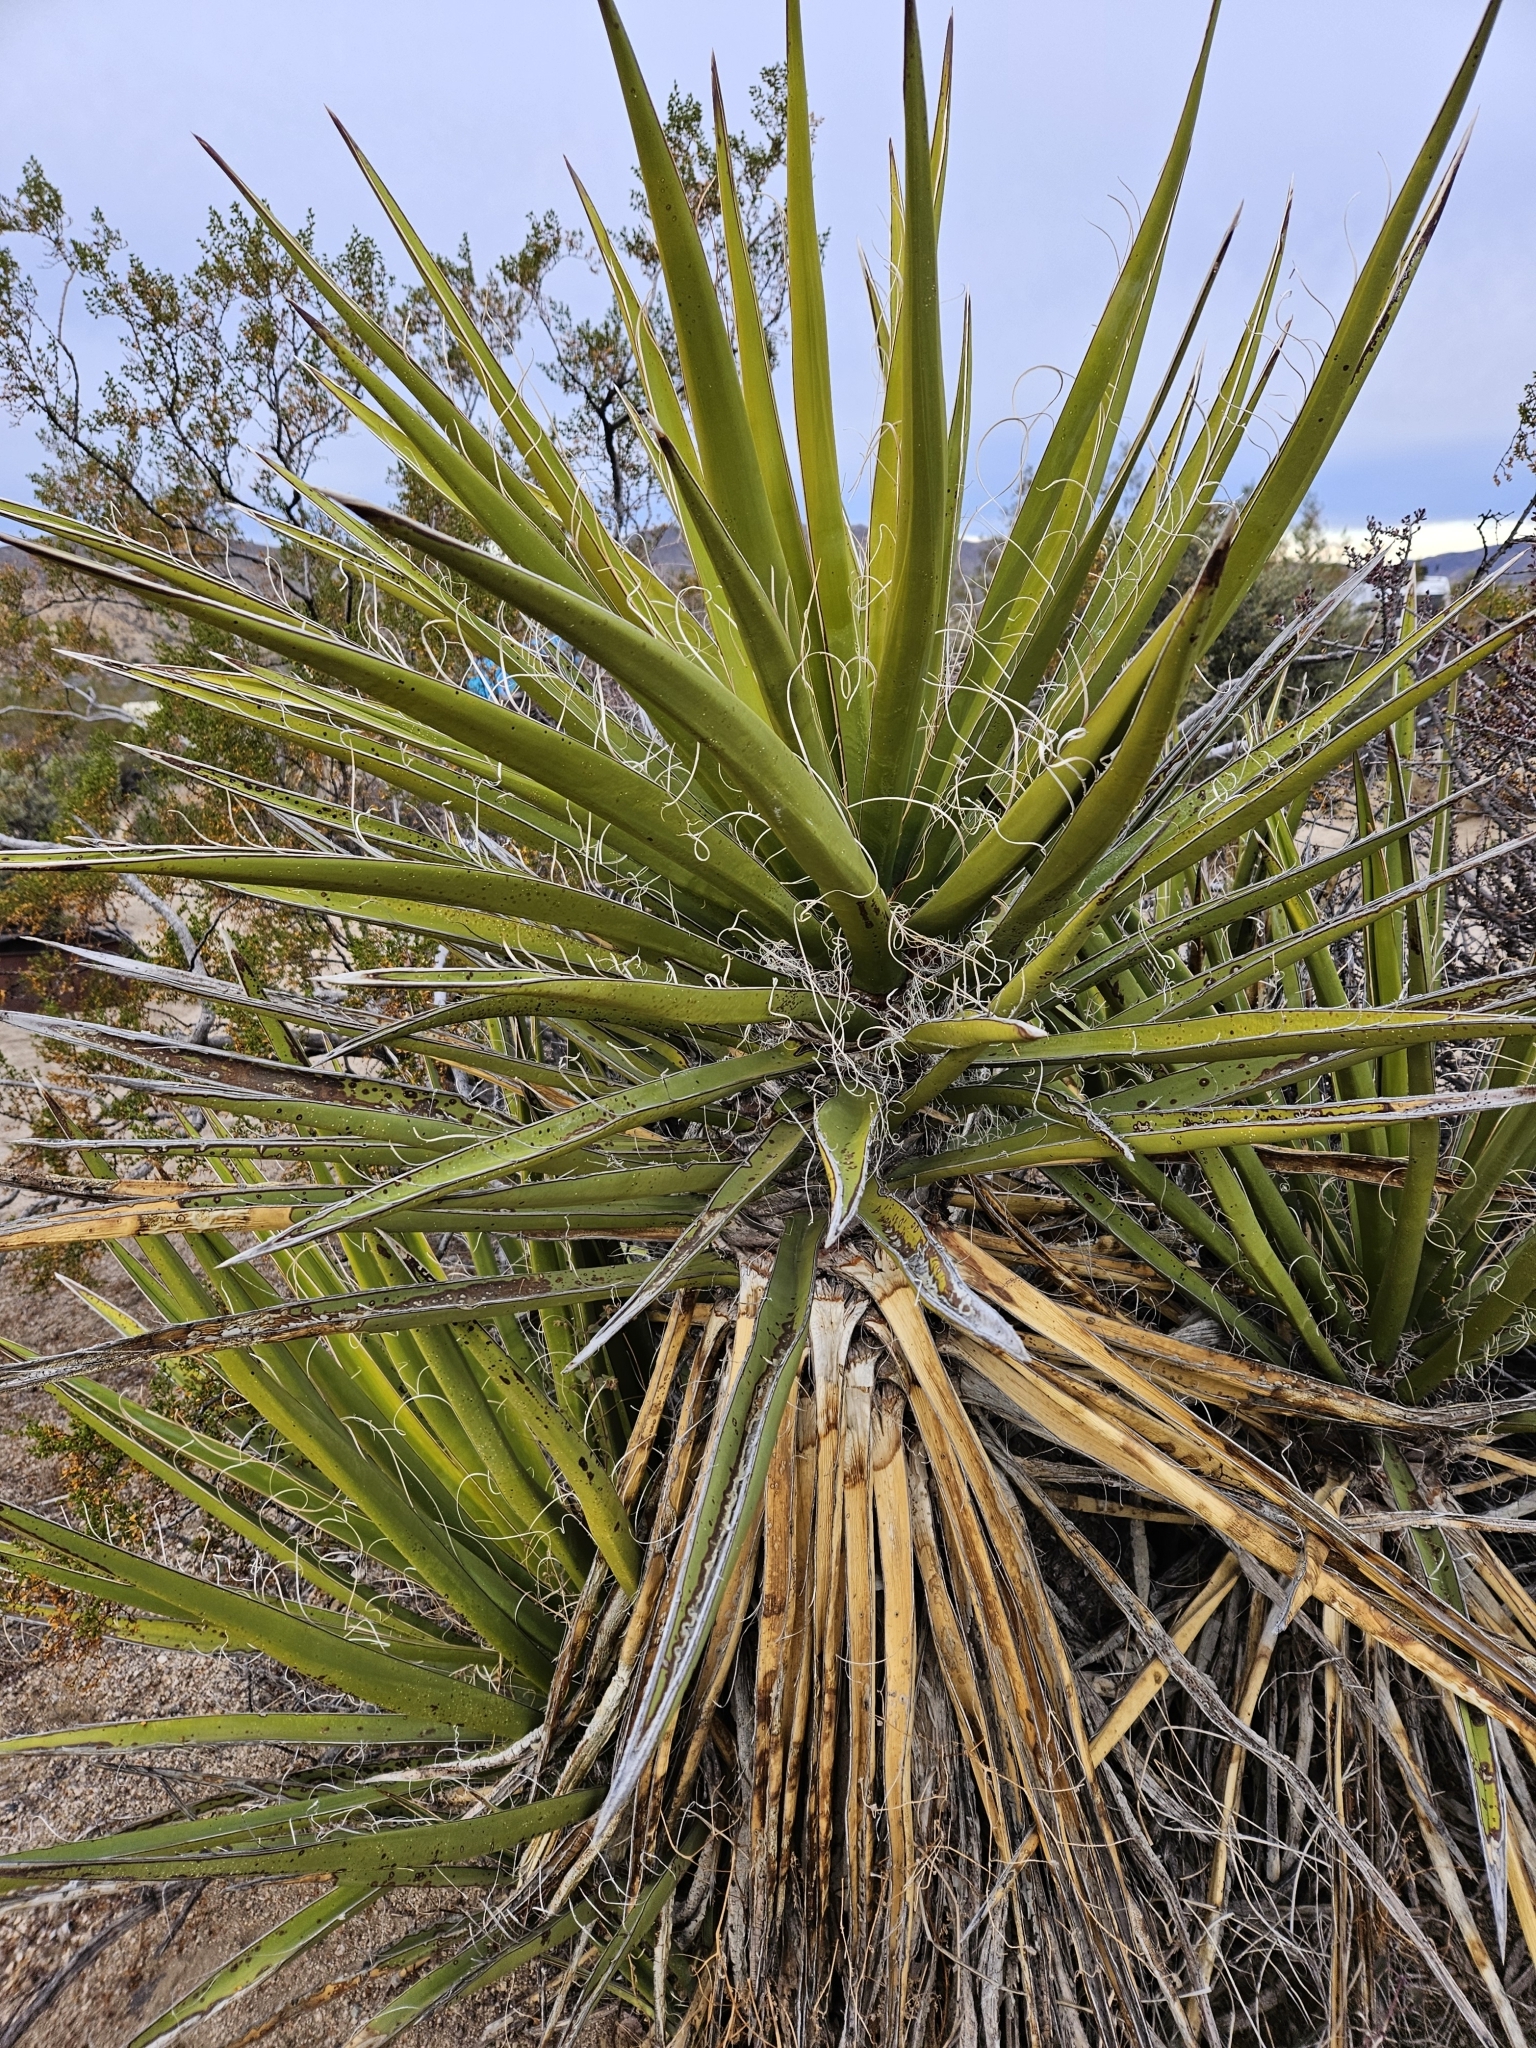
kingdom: Plantae
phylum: Tracheophyta
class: Liliopsida
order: Asparagales
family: Asparagaceae
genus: Yucca
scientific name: Yucca schidigera
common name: Mojave yucca
